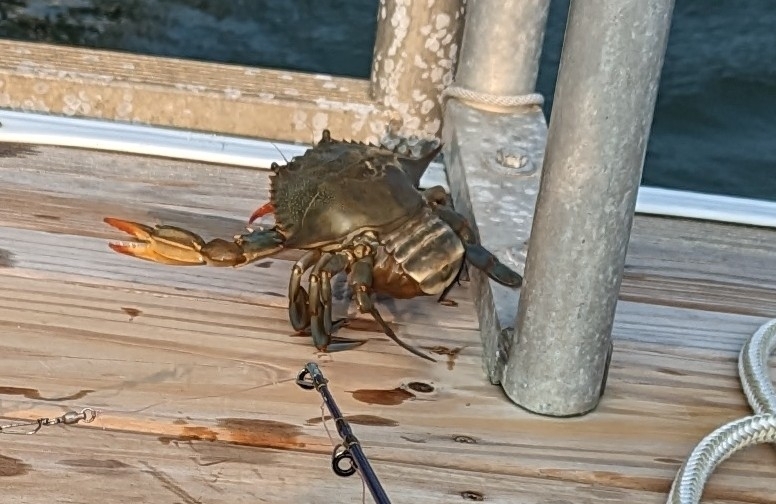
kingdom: Animalia
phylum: Arthropoda
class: Malacostraca
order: Decapoda
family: Portunidae
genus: Callinectes
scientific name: Callinectes sapidus
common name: Blue crab
